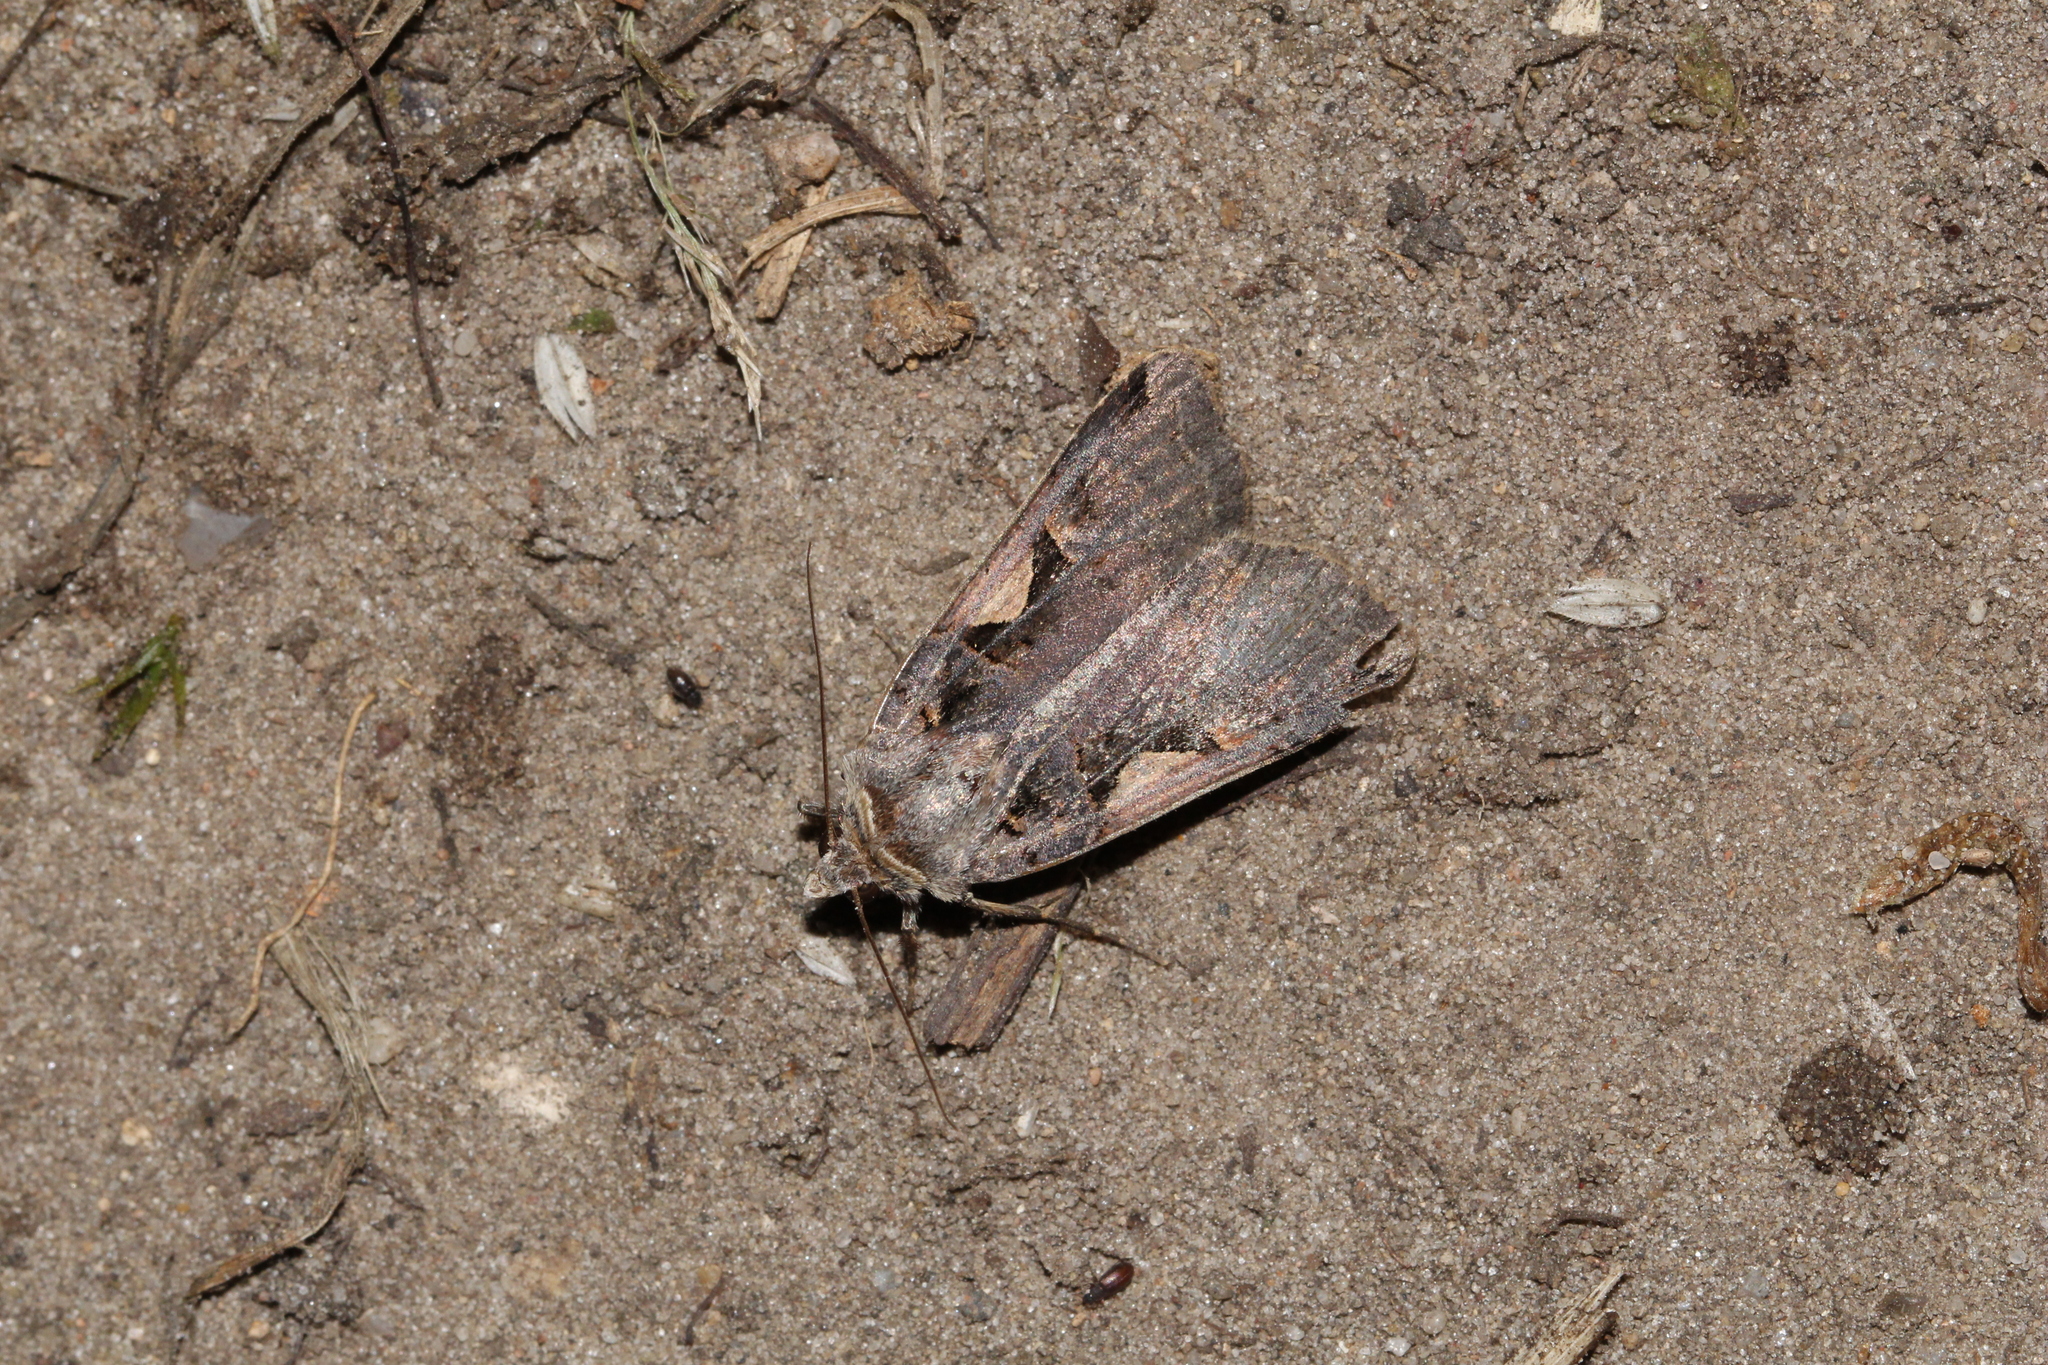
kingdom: Animalia
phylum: Arthropoda
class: Insecta
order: Lepidoptera
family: Noctuidae
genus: Xestia
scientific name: Xestia c-nigrum
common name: Setaceous hebrew character
